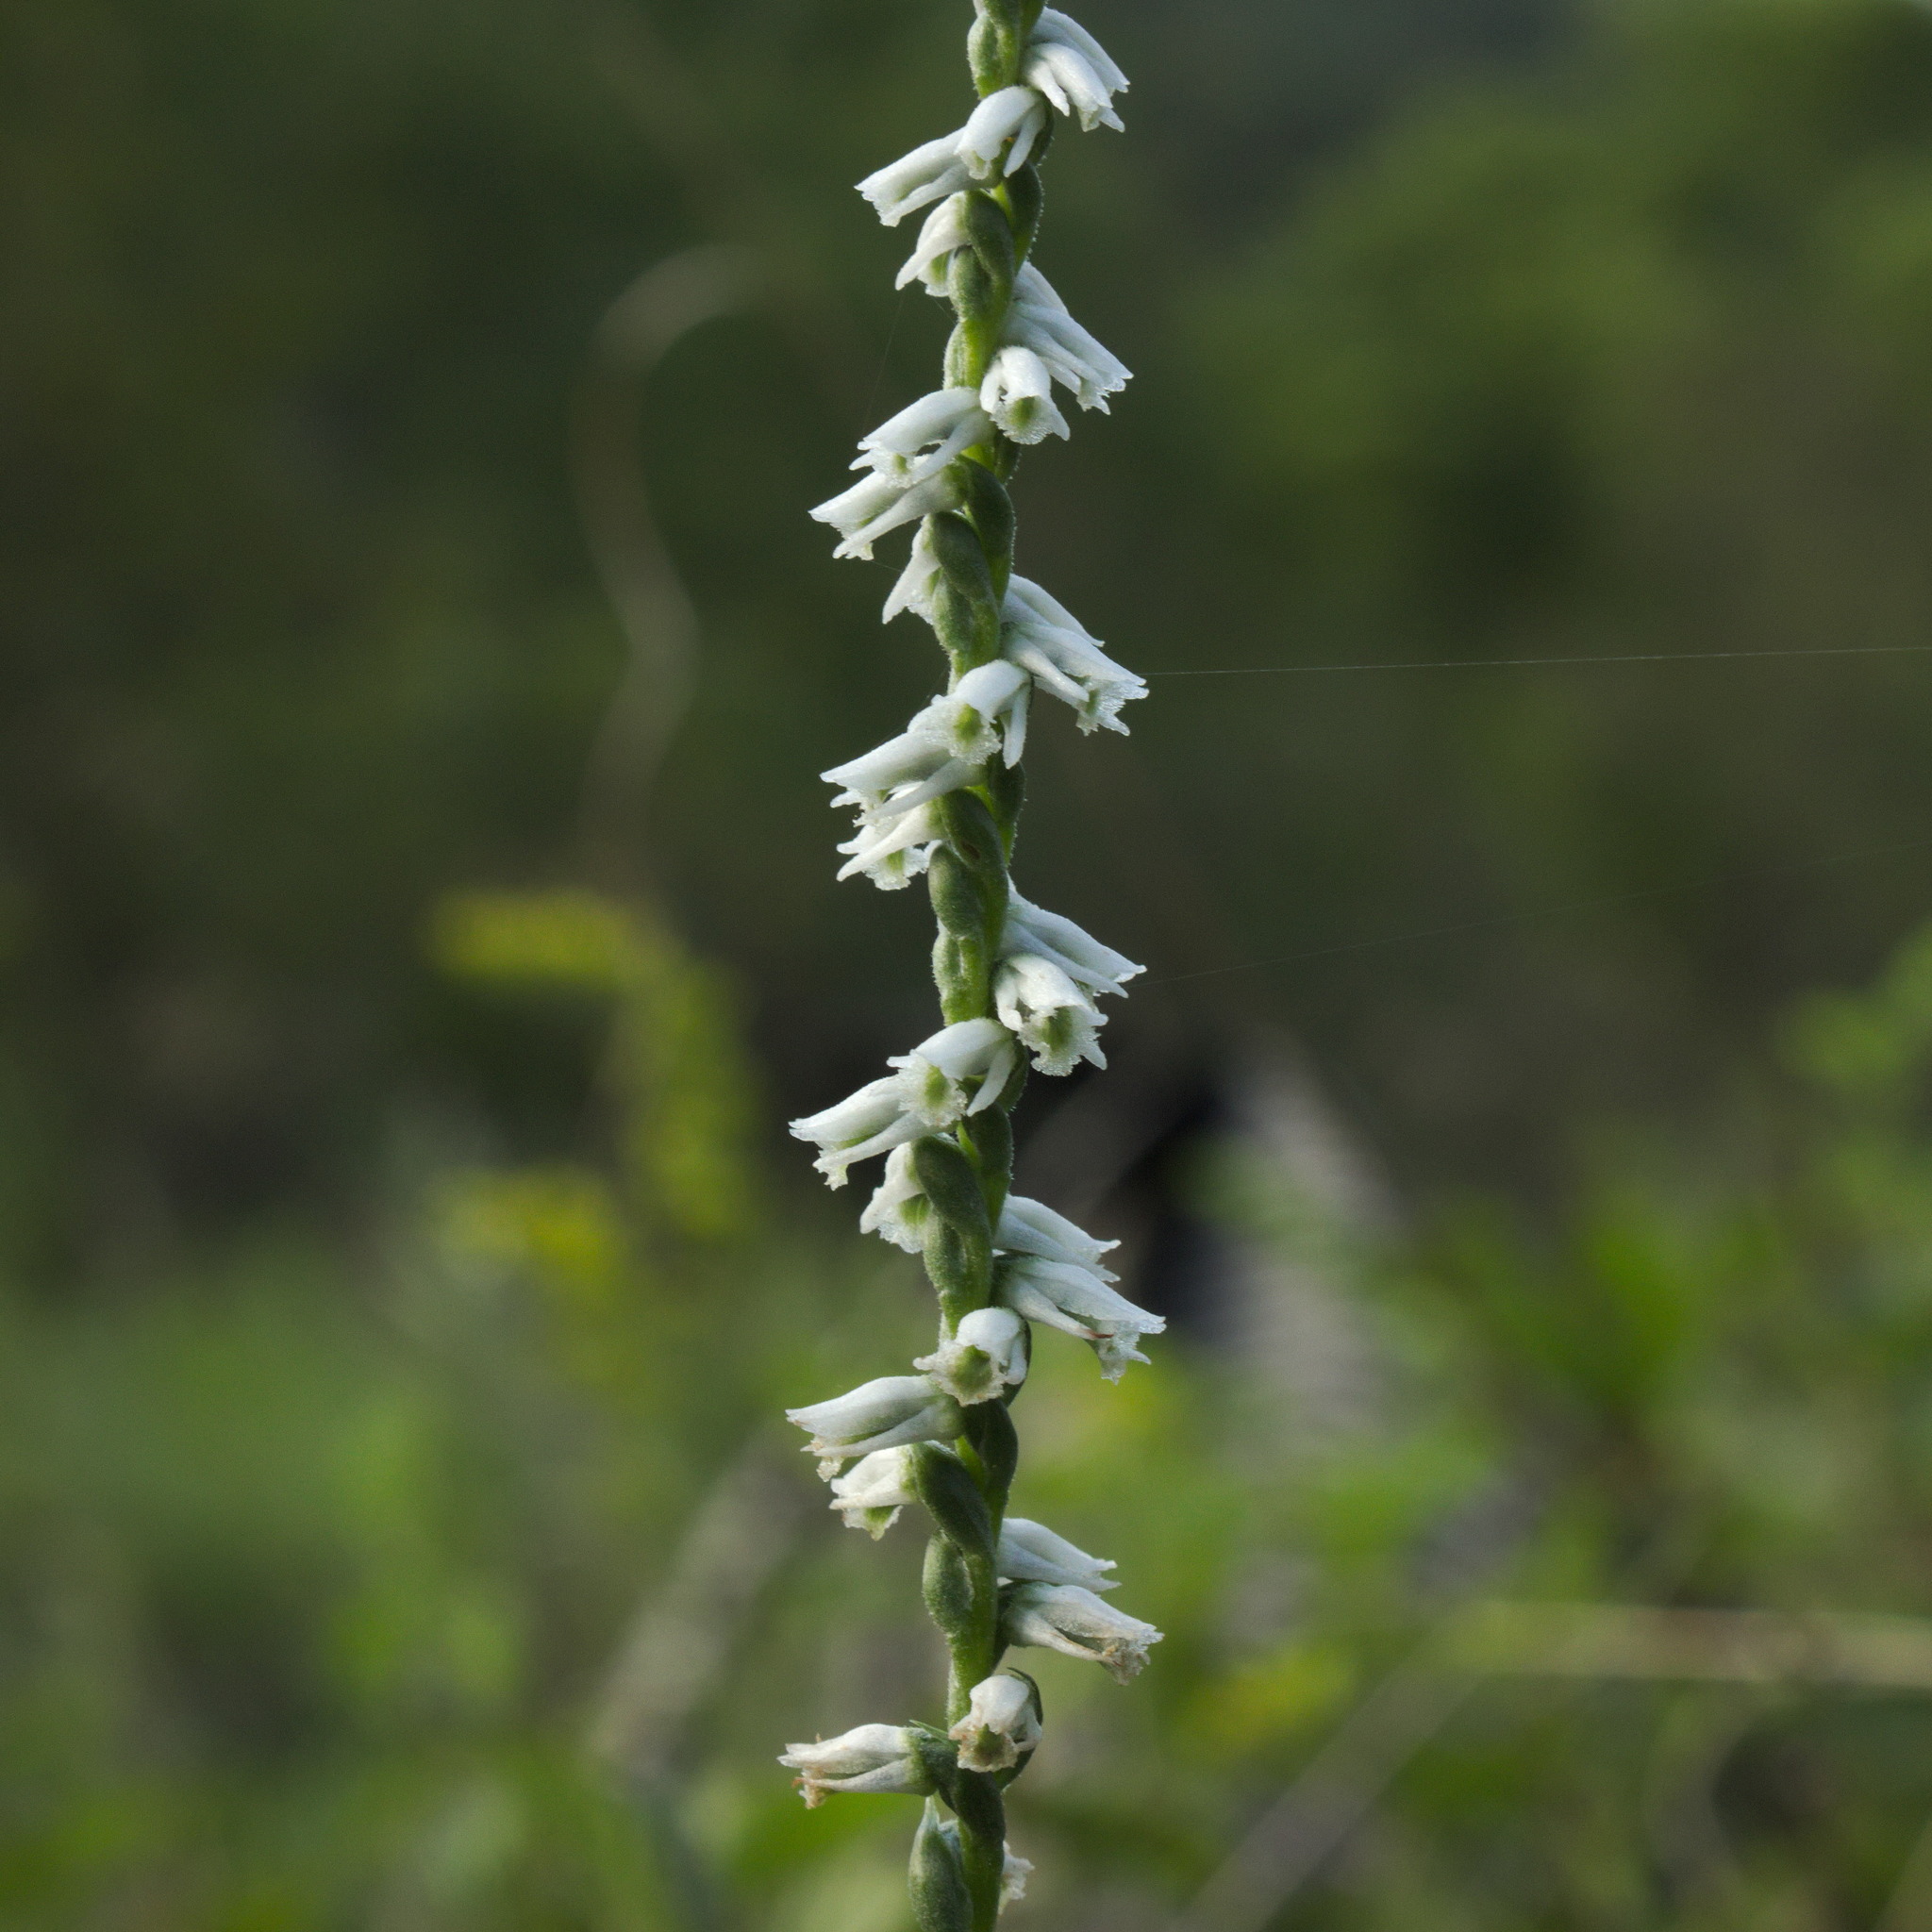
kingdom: Plantae
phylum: Tracheophyta
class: Liliopsida
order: Asparagales
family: Orchidaceae
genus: Spiranthes
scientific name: Spiranthes lacera
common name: Northern slender ladies'-tresses
